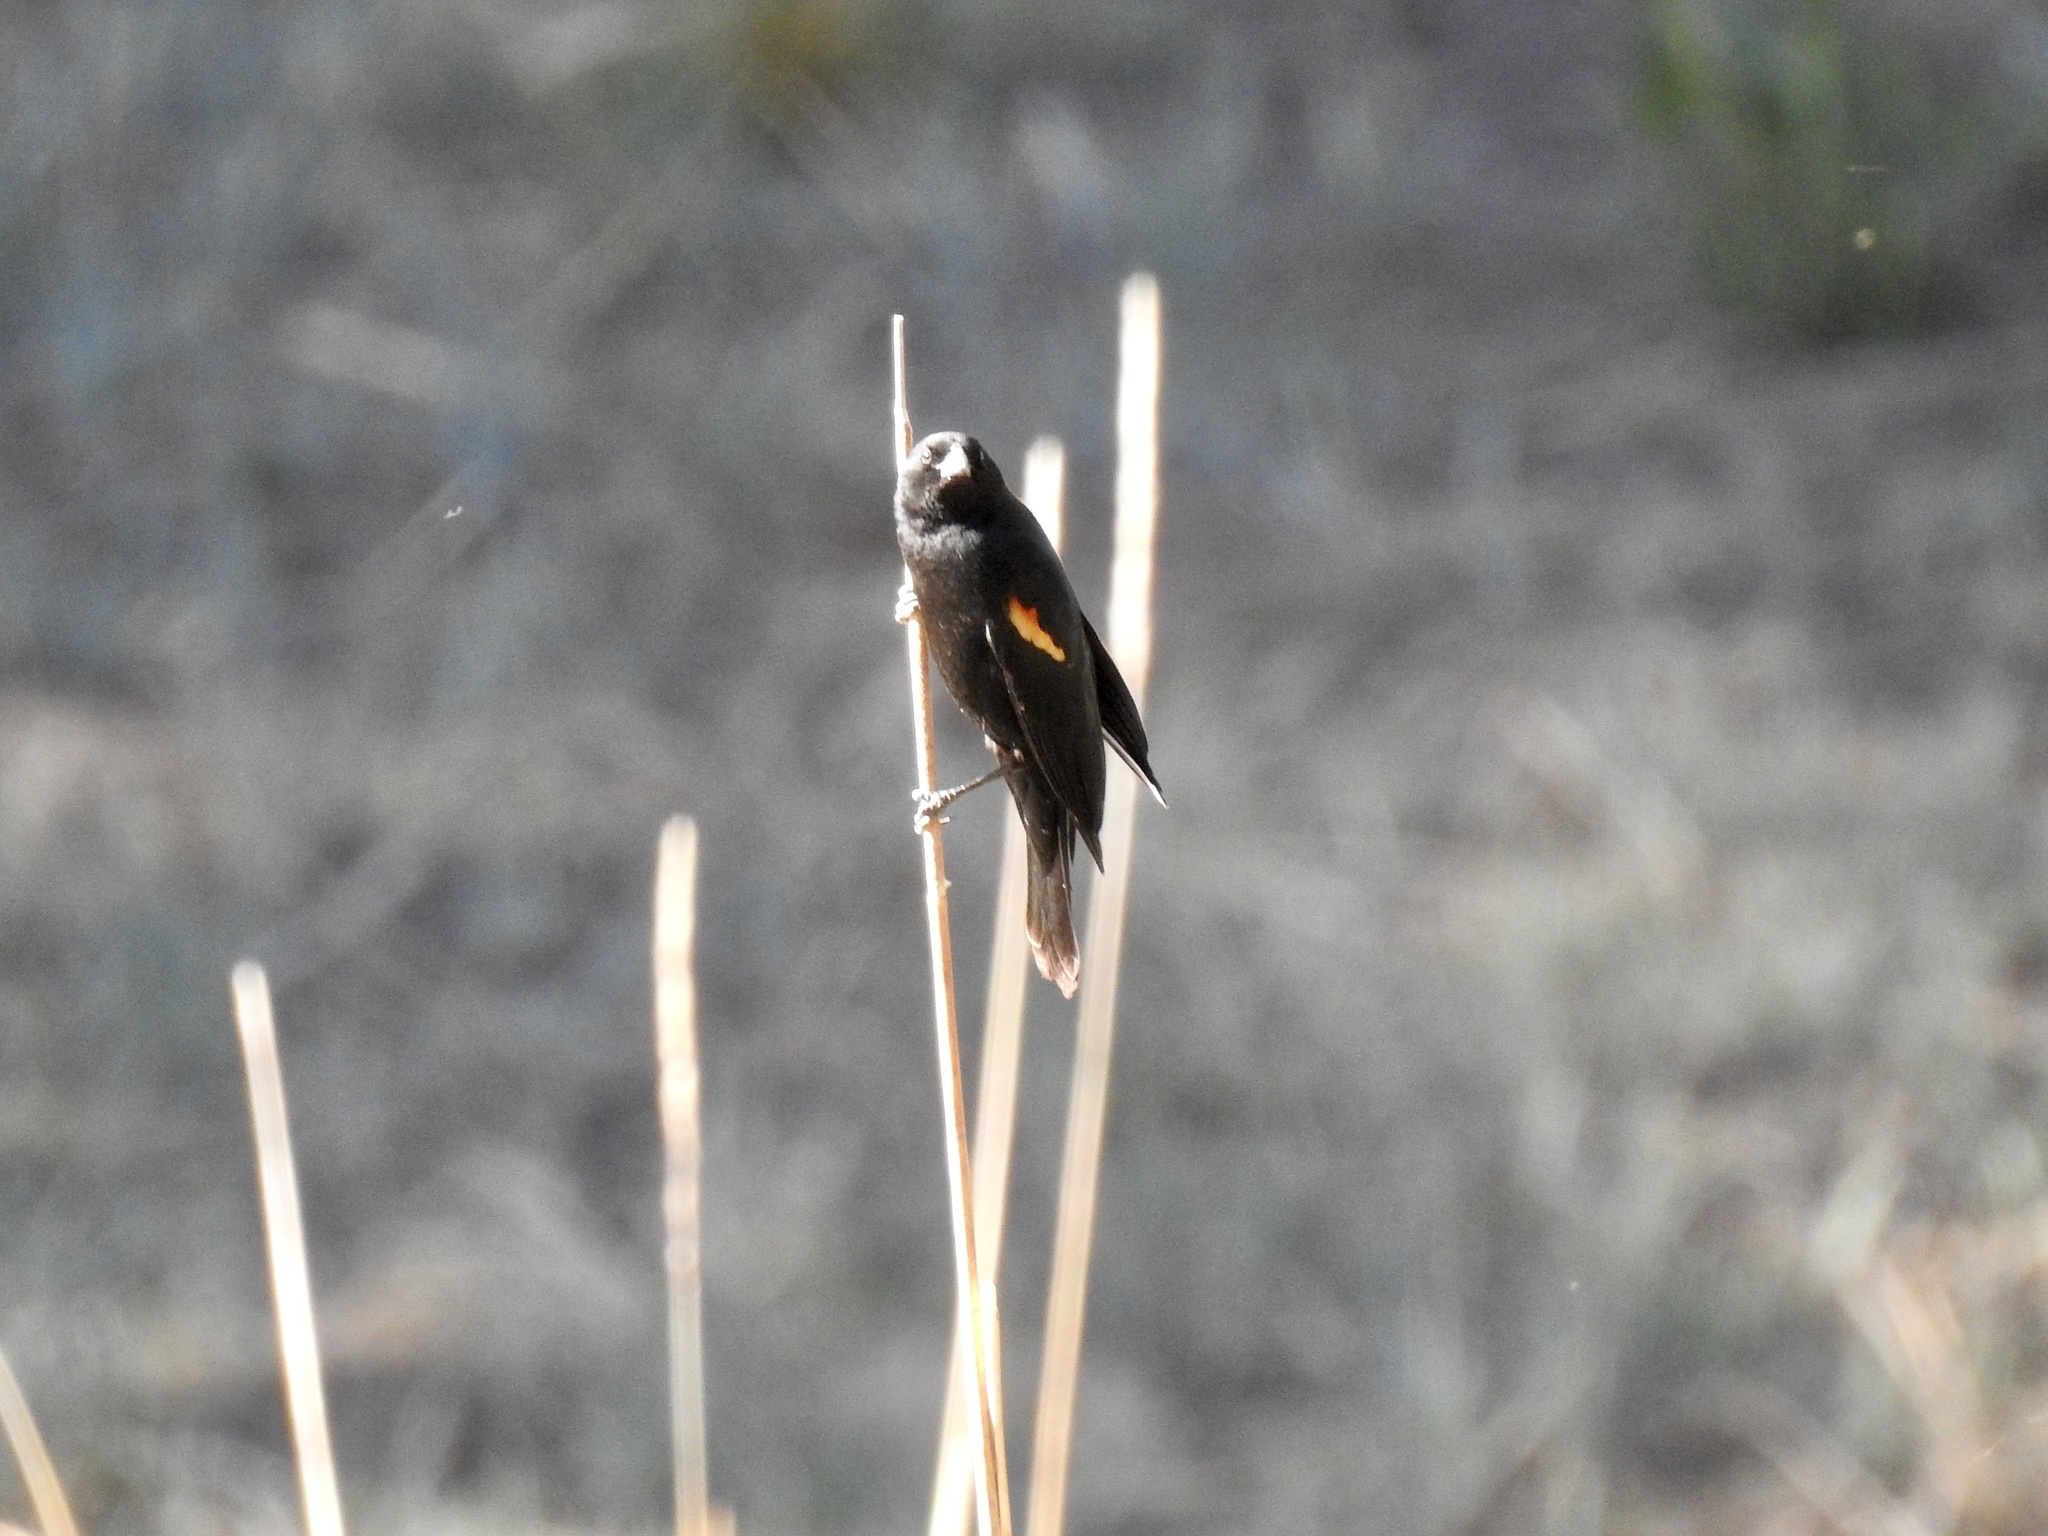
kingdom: Animalia
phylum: Chordata
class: Aves
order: Passeriformes
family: Icteridae
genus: Agelaius
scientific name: Agelaius phoeniceus
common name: Red-winged blackbird
